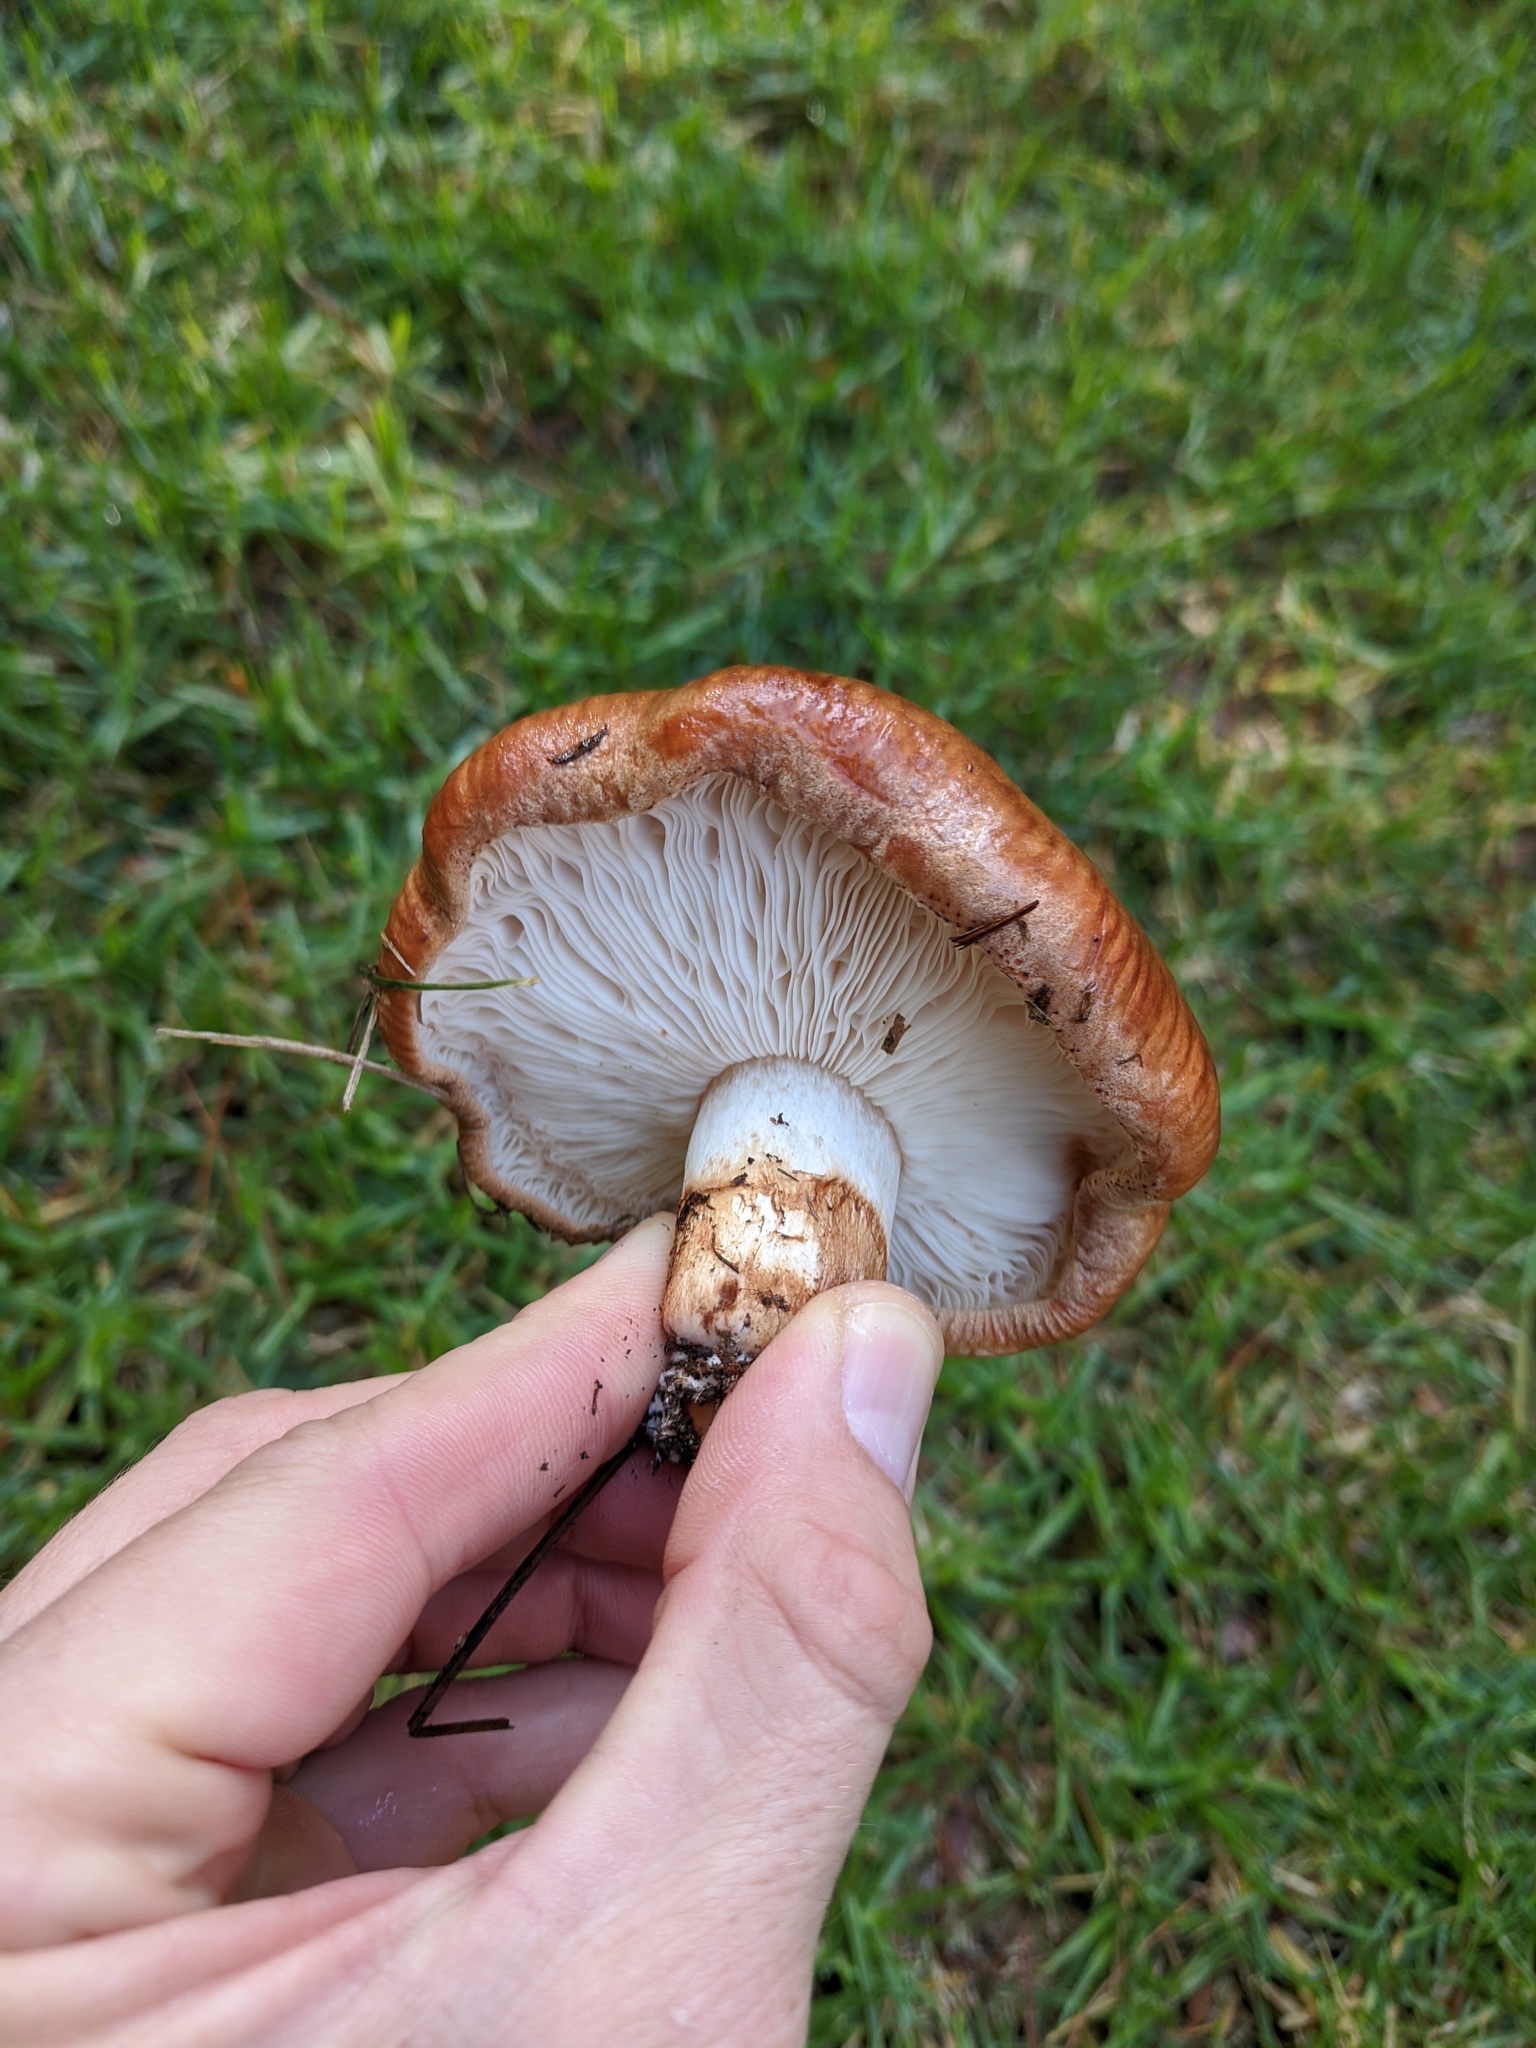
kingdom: Fungi
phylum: Basidiomycota
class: Agaricomycetes
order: Agaricales
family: Tricholomataceae
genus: Tricholoma
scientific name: Tricholoma fracticum
